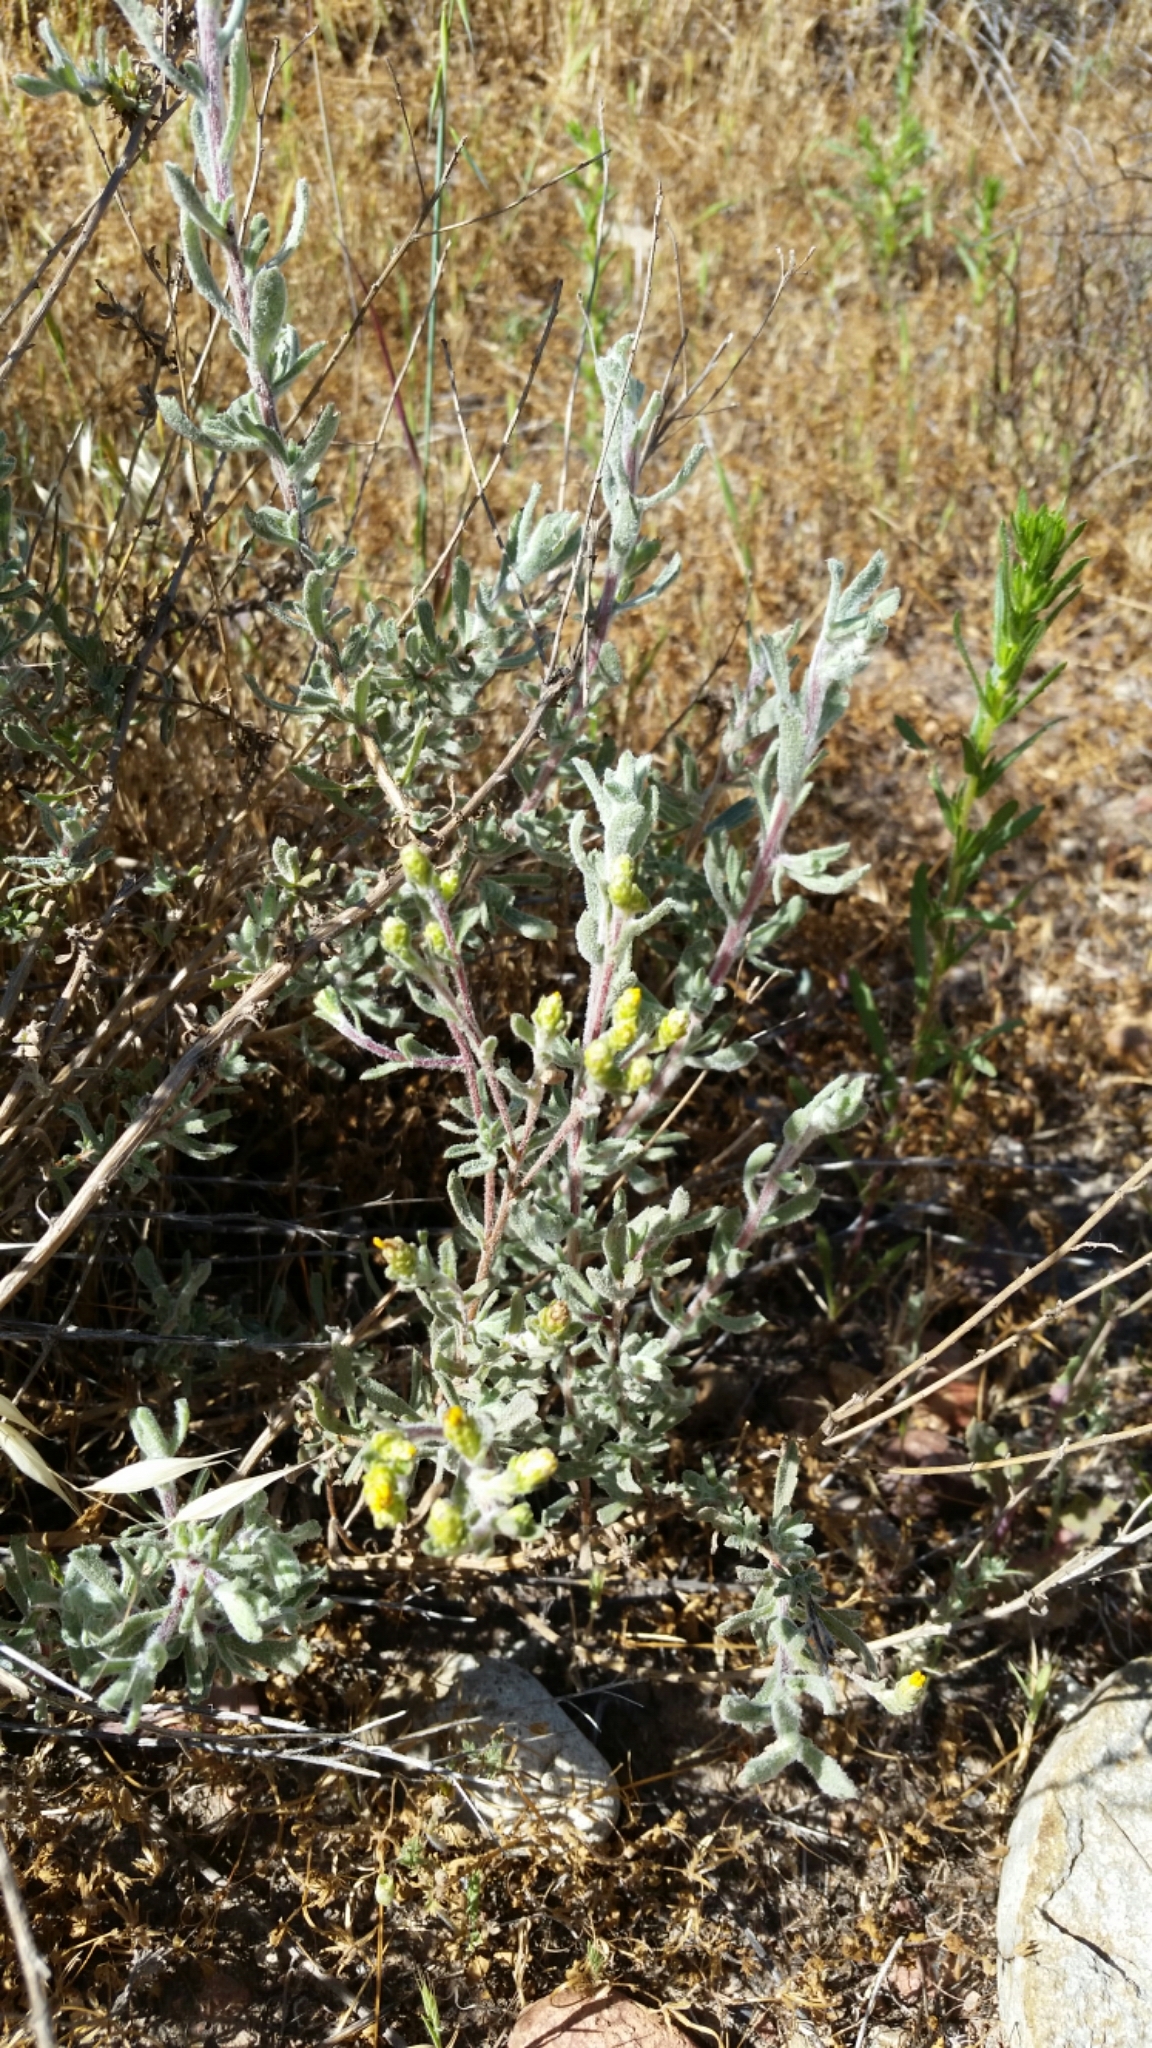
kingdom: Plantae
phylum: Tracheophyta
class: Magnoliopsida
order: Asterales
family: Asteraceae
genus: Isocoma
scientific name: Isocoma menziesii
